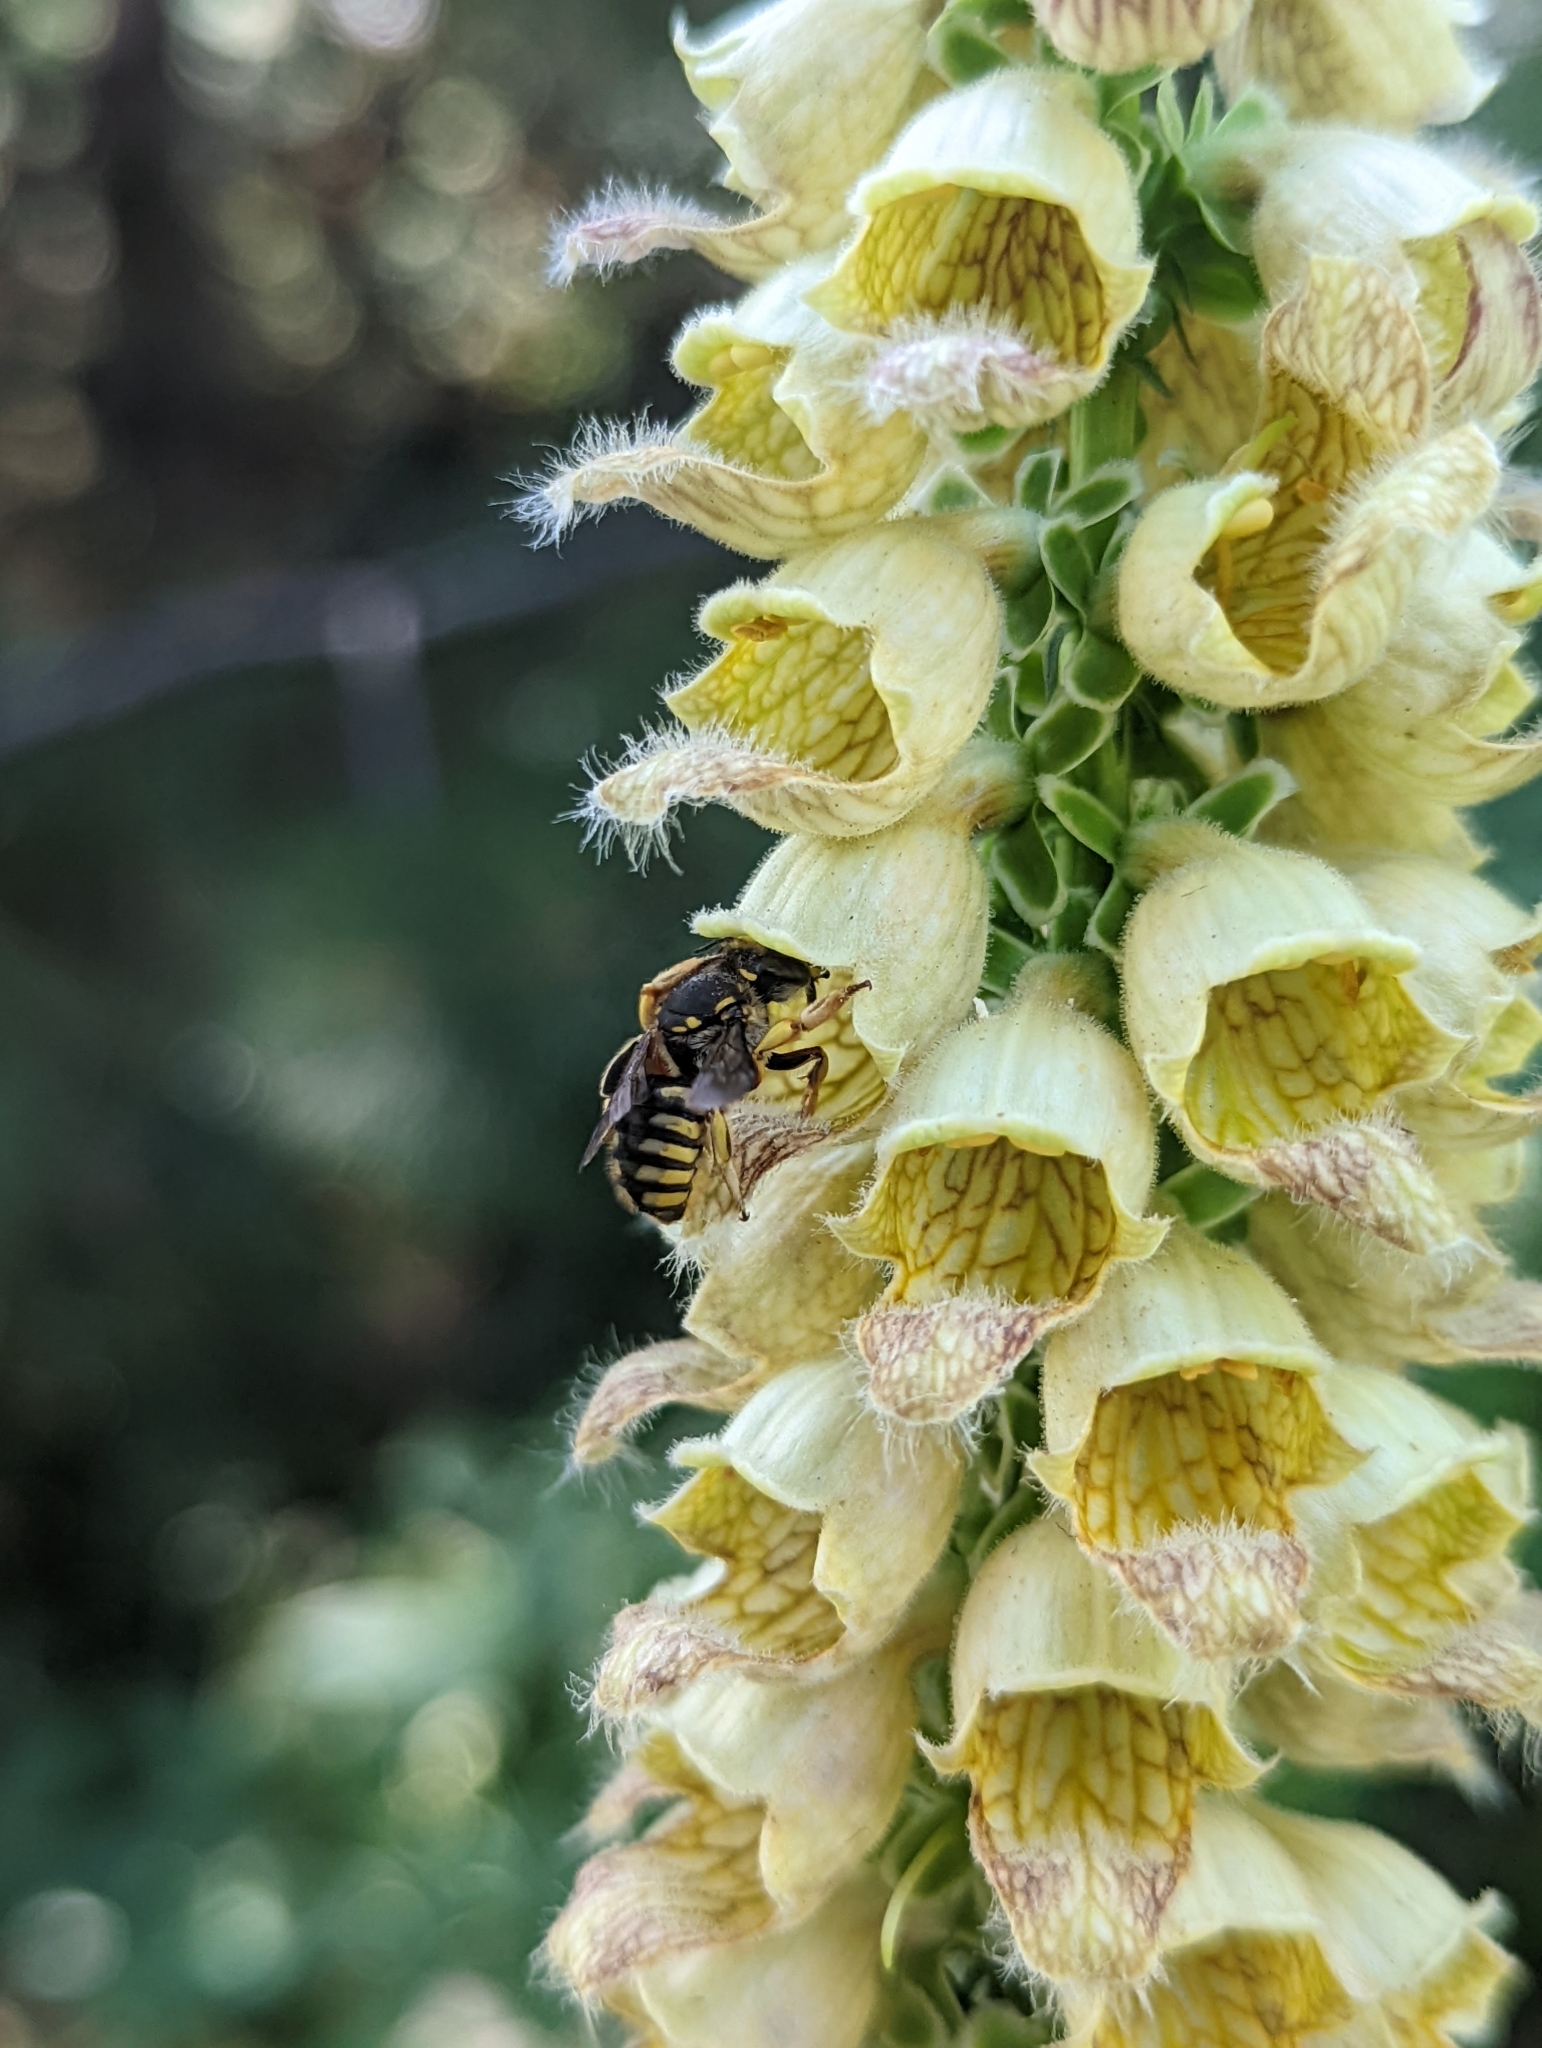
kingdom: Animalia
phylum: Arthropoda
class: Insecta
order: Hymenoptera
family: Megachilidae
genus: Anthidium
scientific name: Anthidium manicatum
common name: Wool carder bee
